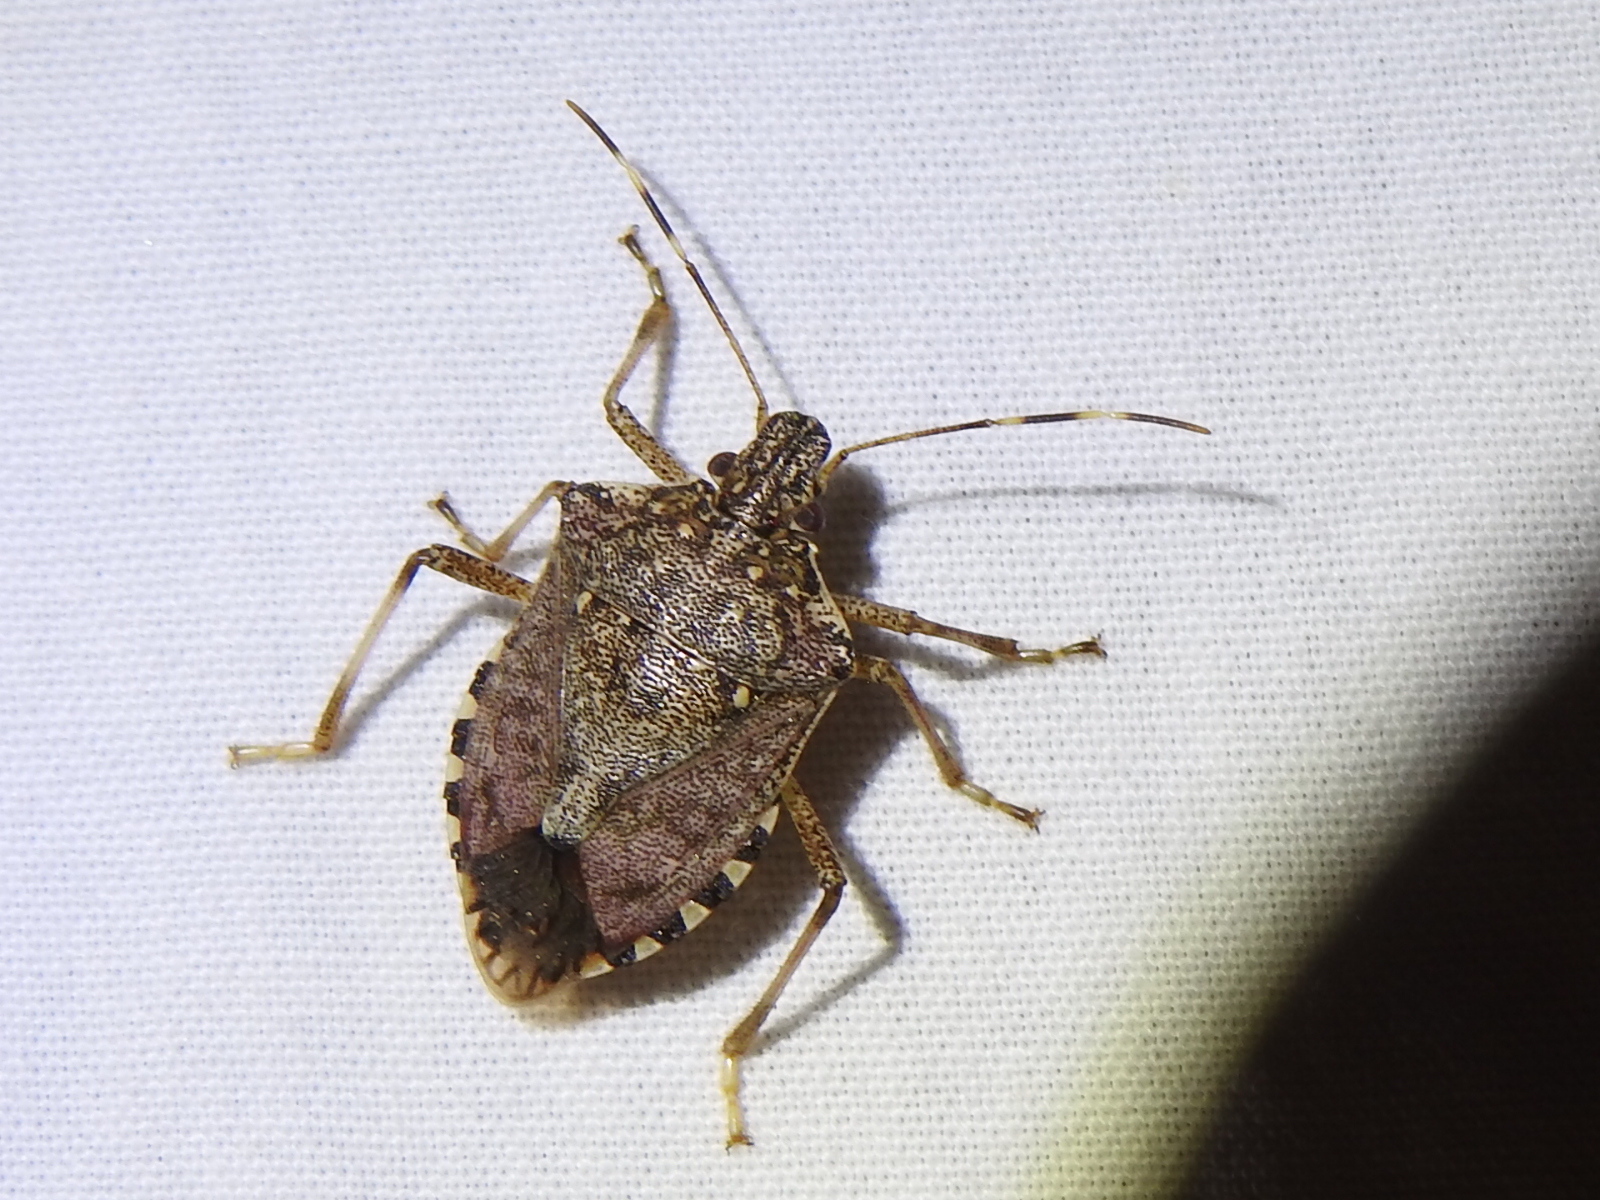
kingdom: Animalia
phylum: Arthropoda
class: Insecta
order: Hemiptera
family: Pentatomidae
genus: Halyomorpha
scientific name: Halyomorpha halys
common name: Brown marmorated stink bug
